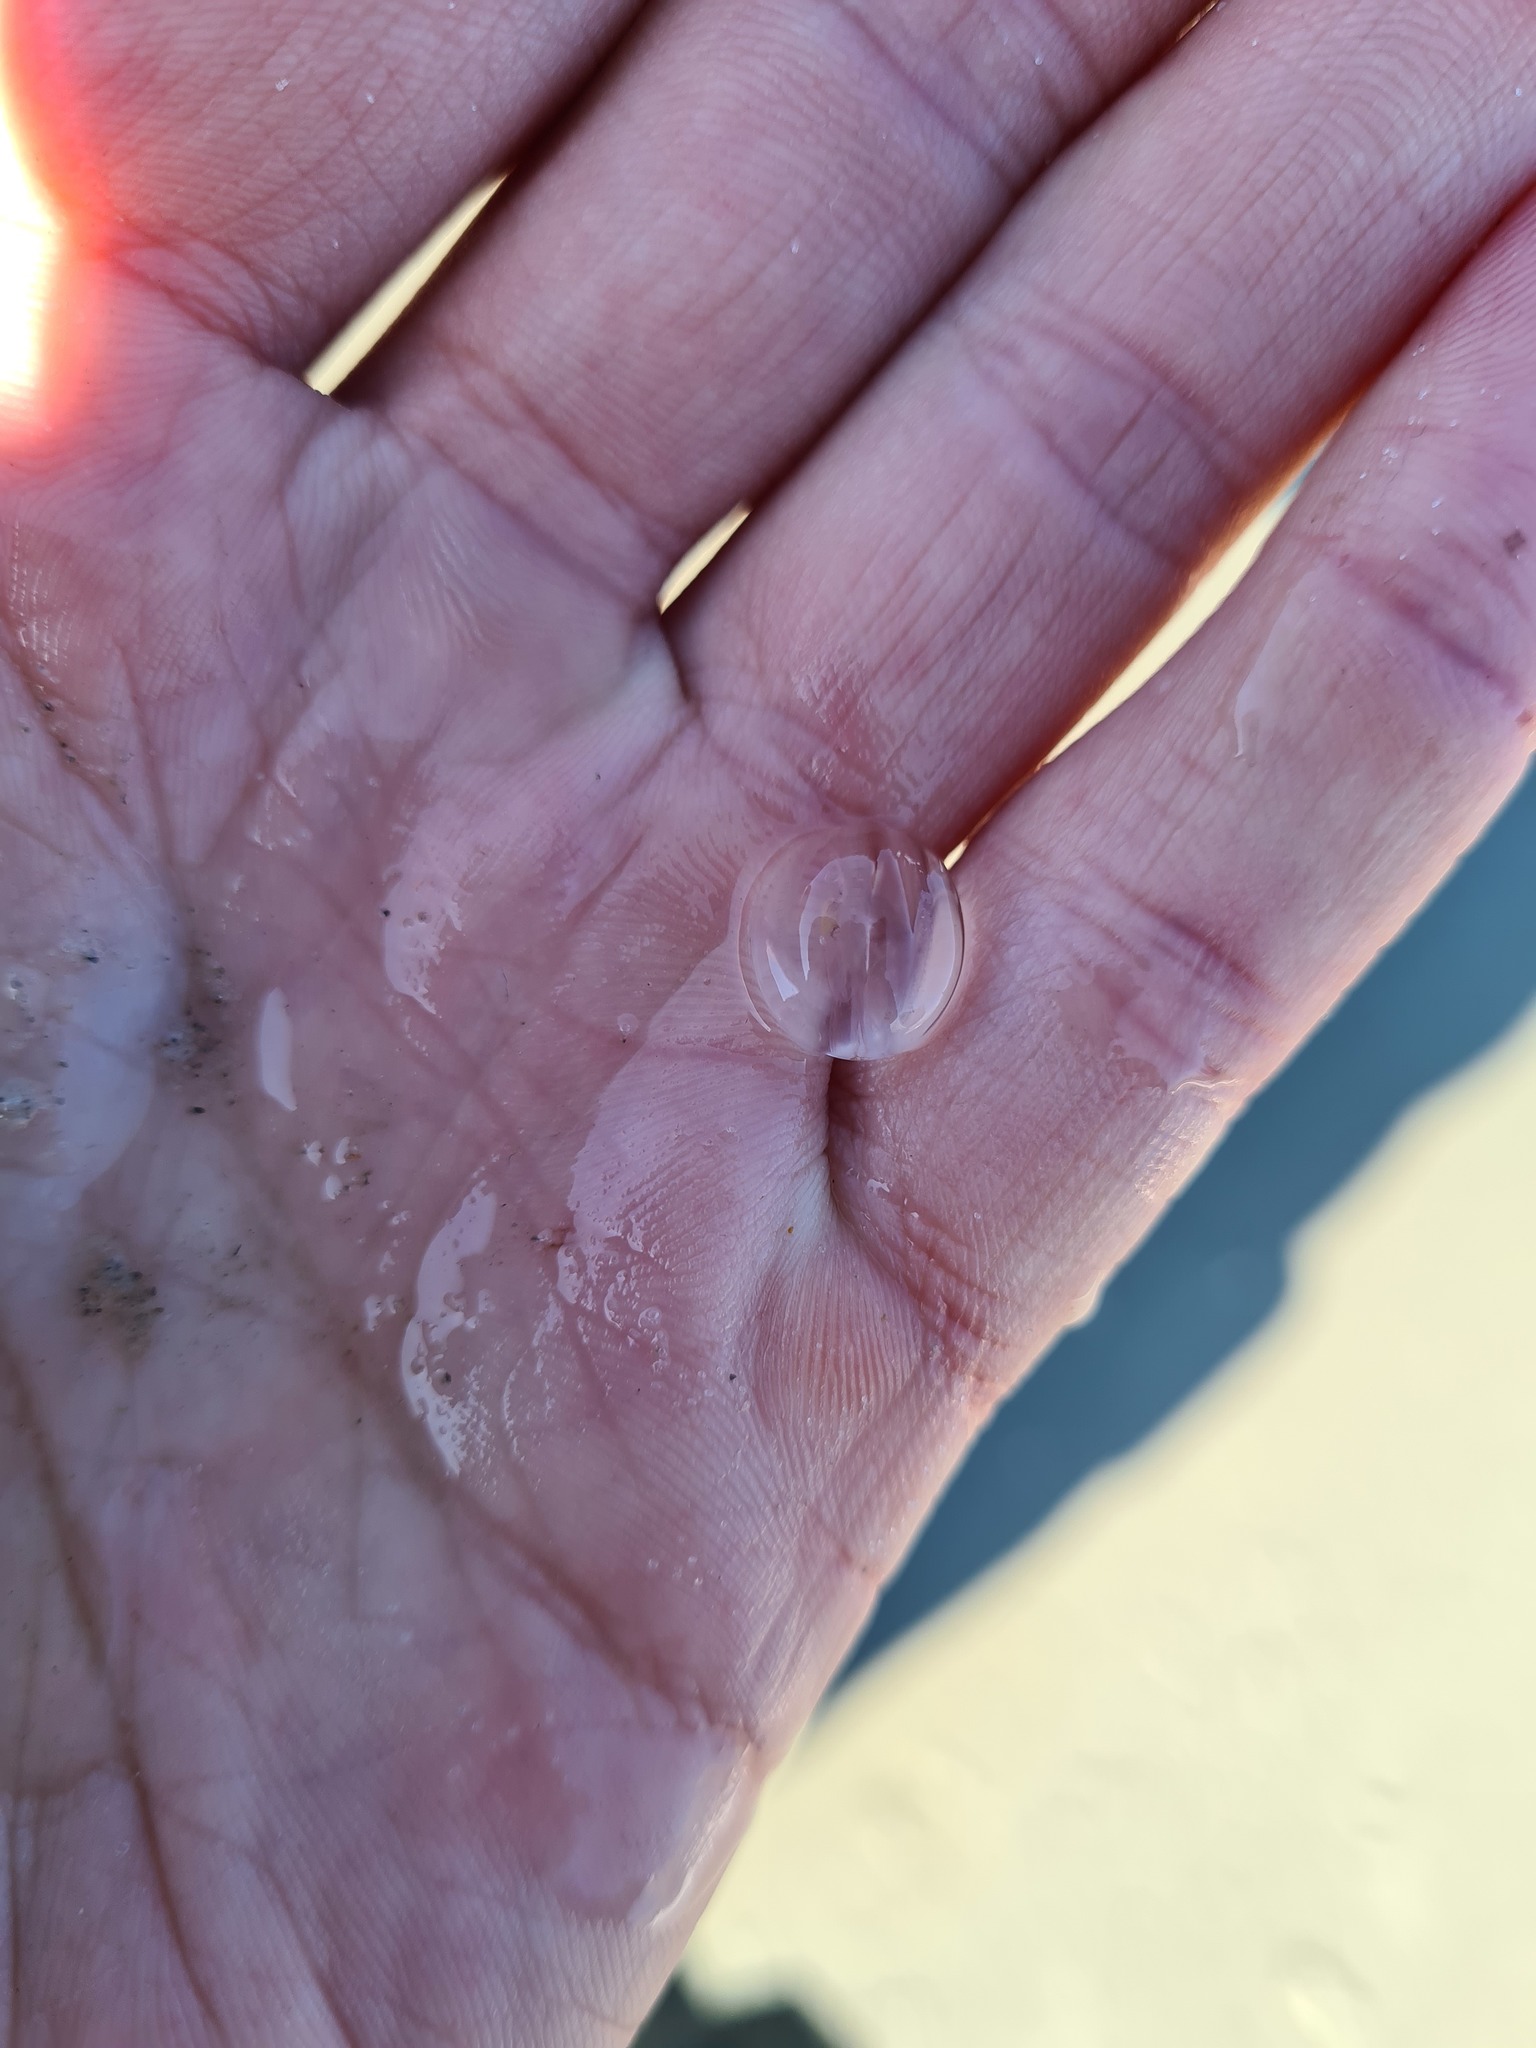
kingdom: Animalia
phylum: Ctenophora
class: Tentaculata
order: Cydippida
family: Pleurobrachiidae
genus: Pleurobrachia
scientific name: Pleurobrachia pileus
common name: Sea gooseberry
